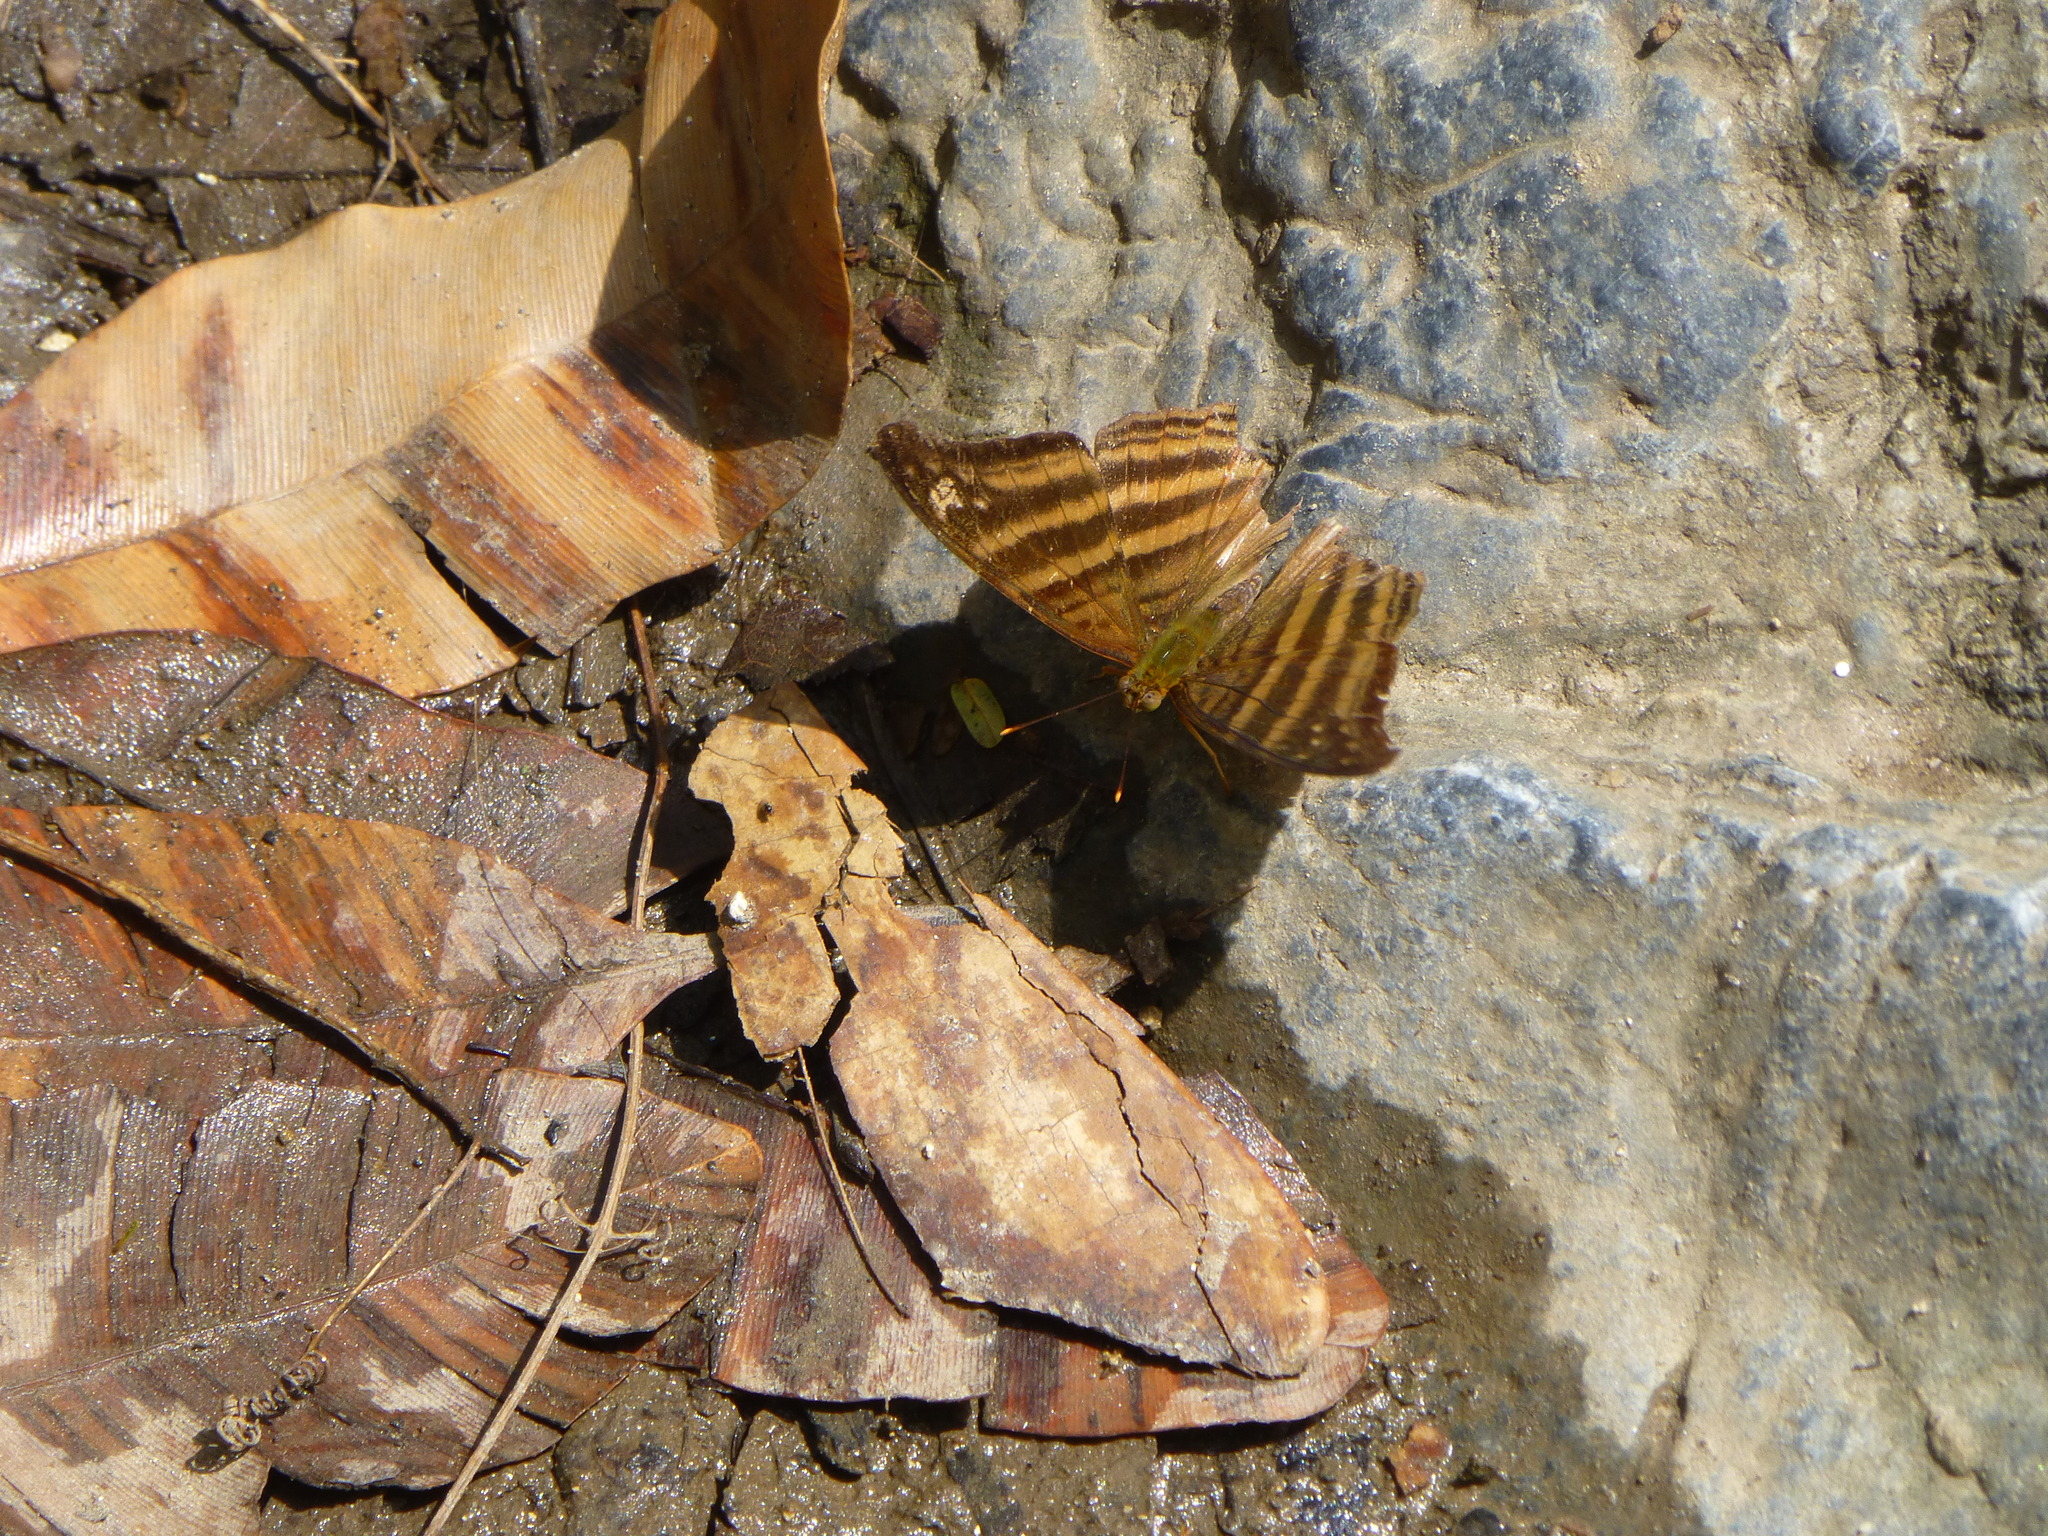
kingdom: Animalia
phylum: Arthropoda
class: Insecta
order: Lepidoptera
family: Nymphalidae
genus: Marpesia
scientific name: Marpesia chiron
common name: Many-banded daggerwing
